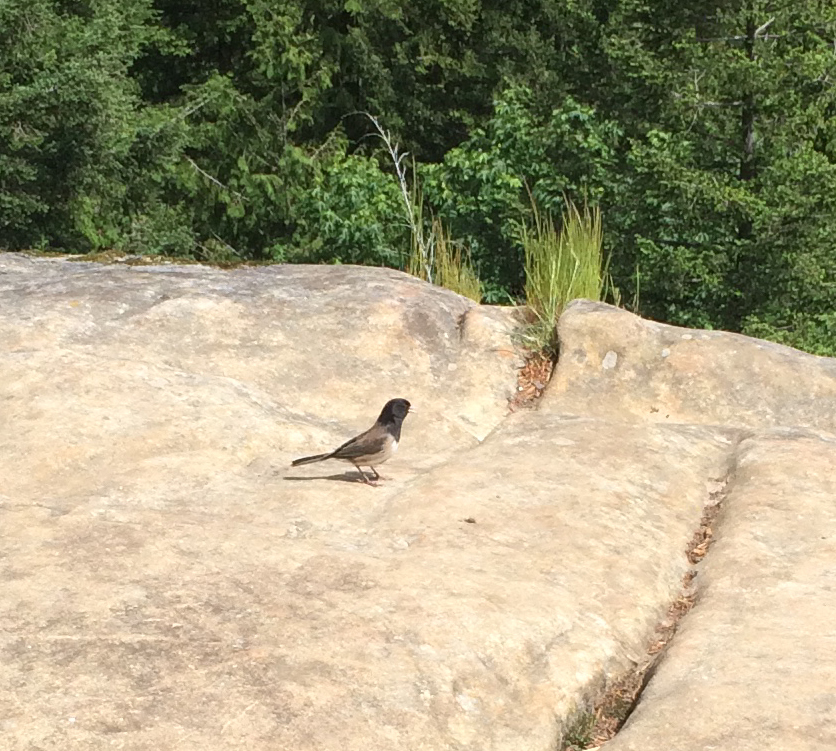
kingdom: Animalia
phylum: Chordata
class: Aves
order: Passeriformes
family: Passerellidae
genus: Junco
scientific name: Junco hyemalis
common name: Dark-eyed junco
